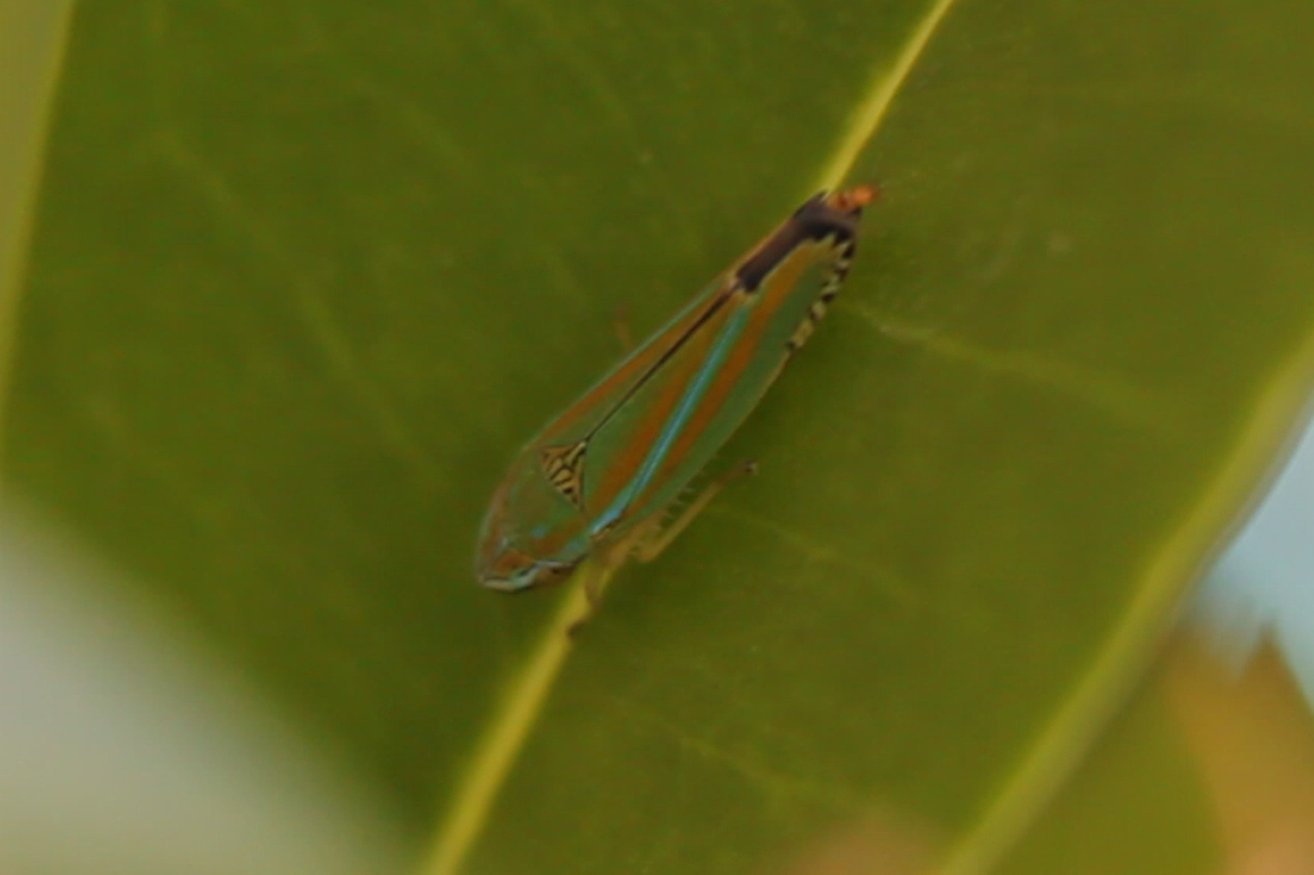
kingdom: Animalia
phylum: Arthropoda
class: Insecta
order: Hemiptera
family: Cicadellidae
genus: Graphocephala
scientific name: Graphocephala versuta
